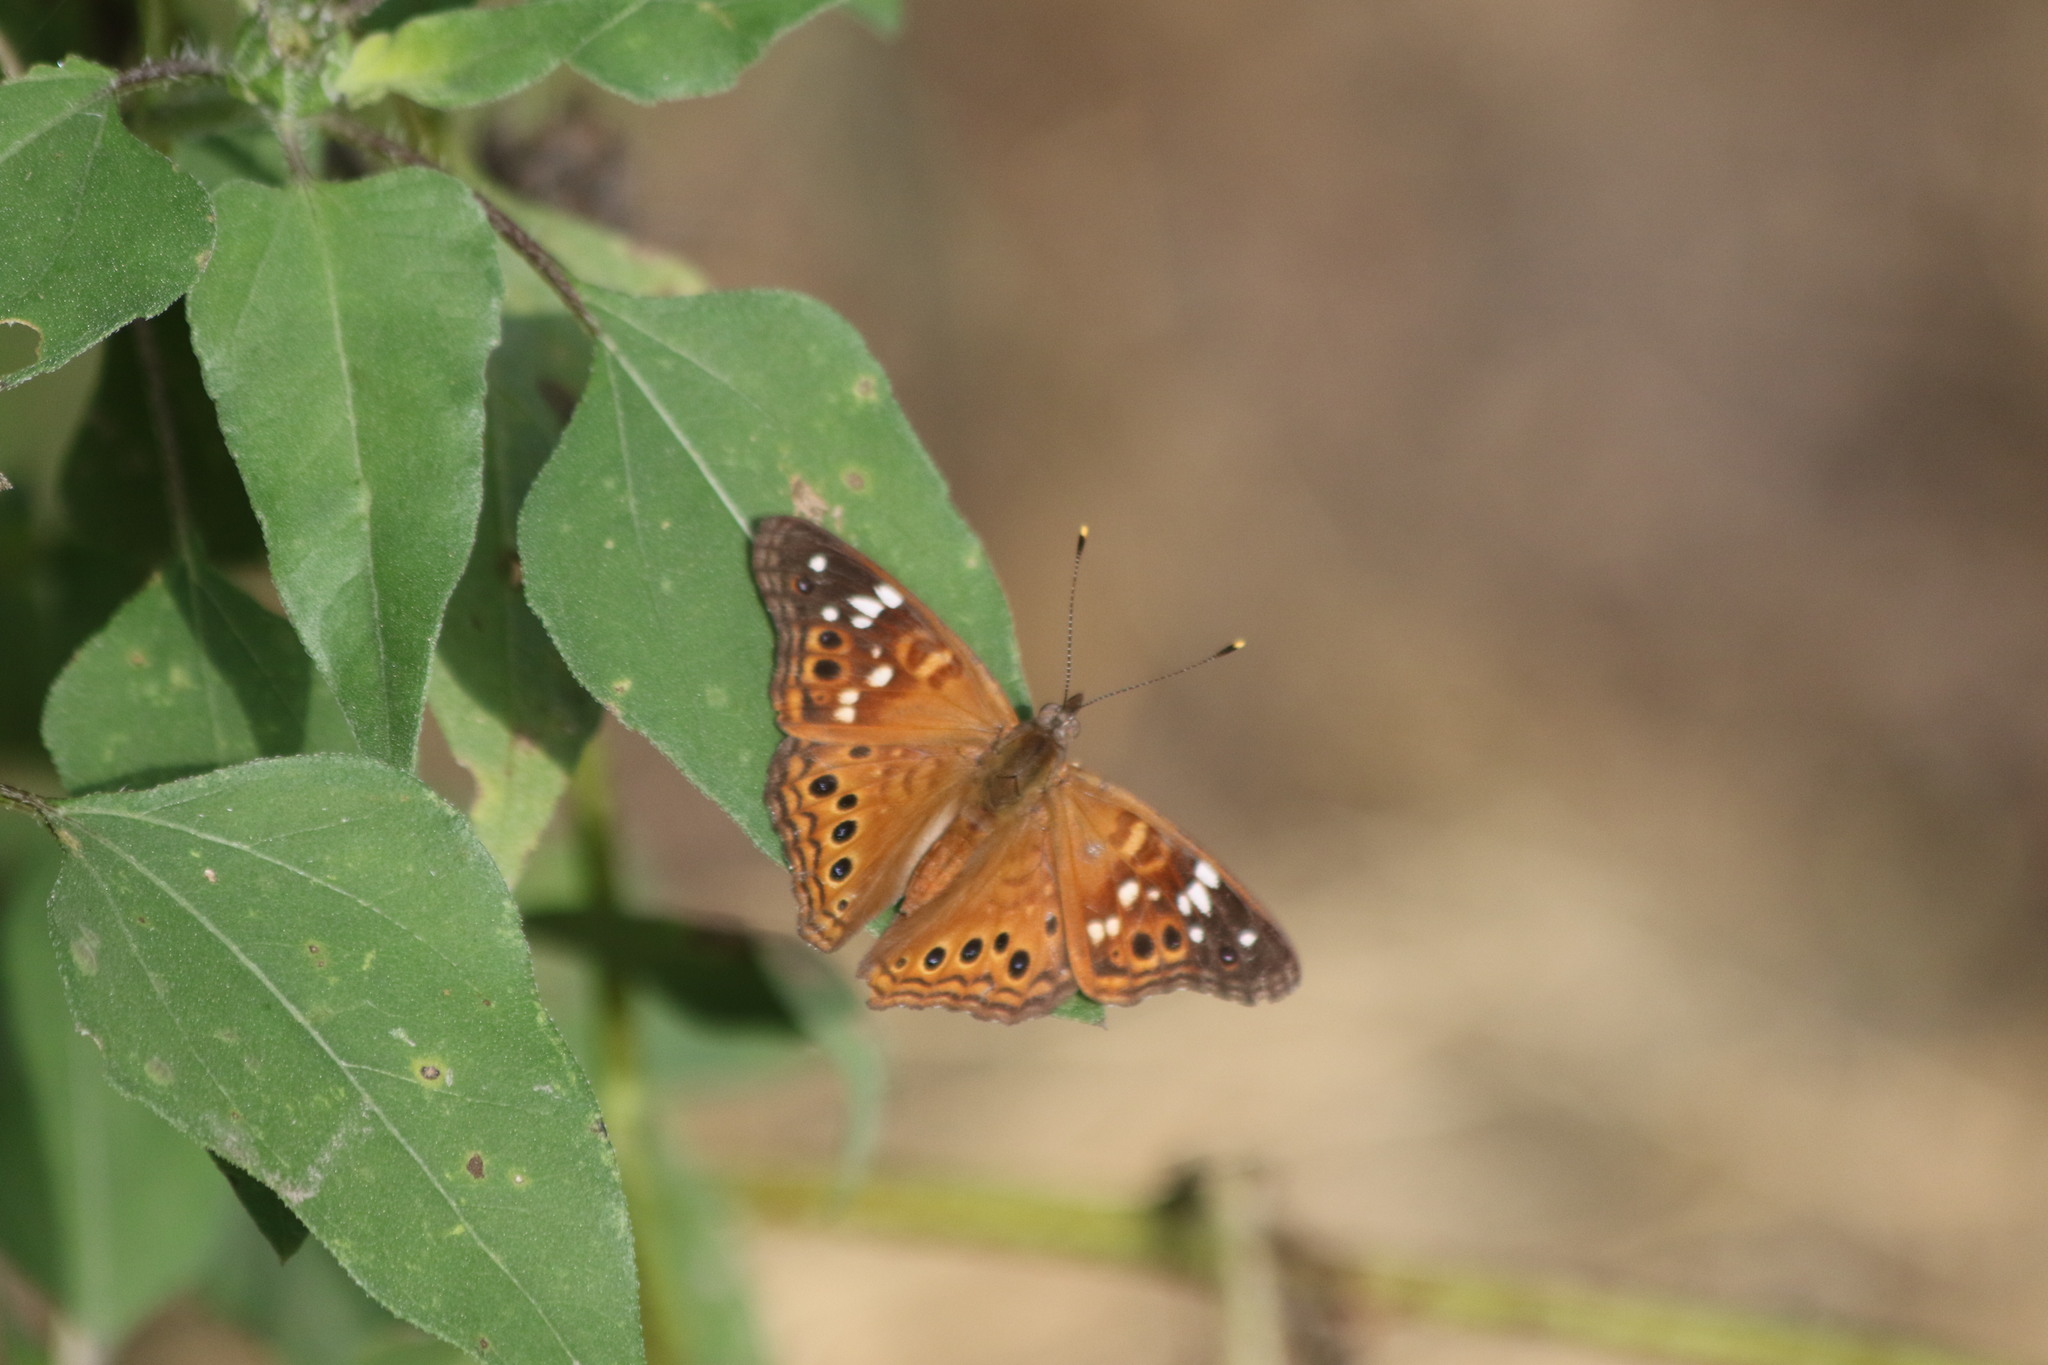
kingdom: Animalia
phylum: Arthropoda
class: Insecta
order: Lepidoptera
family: Nymphalidae
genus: Asterocampa
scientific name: Asterocampa leilia
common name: Empress leilia
